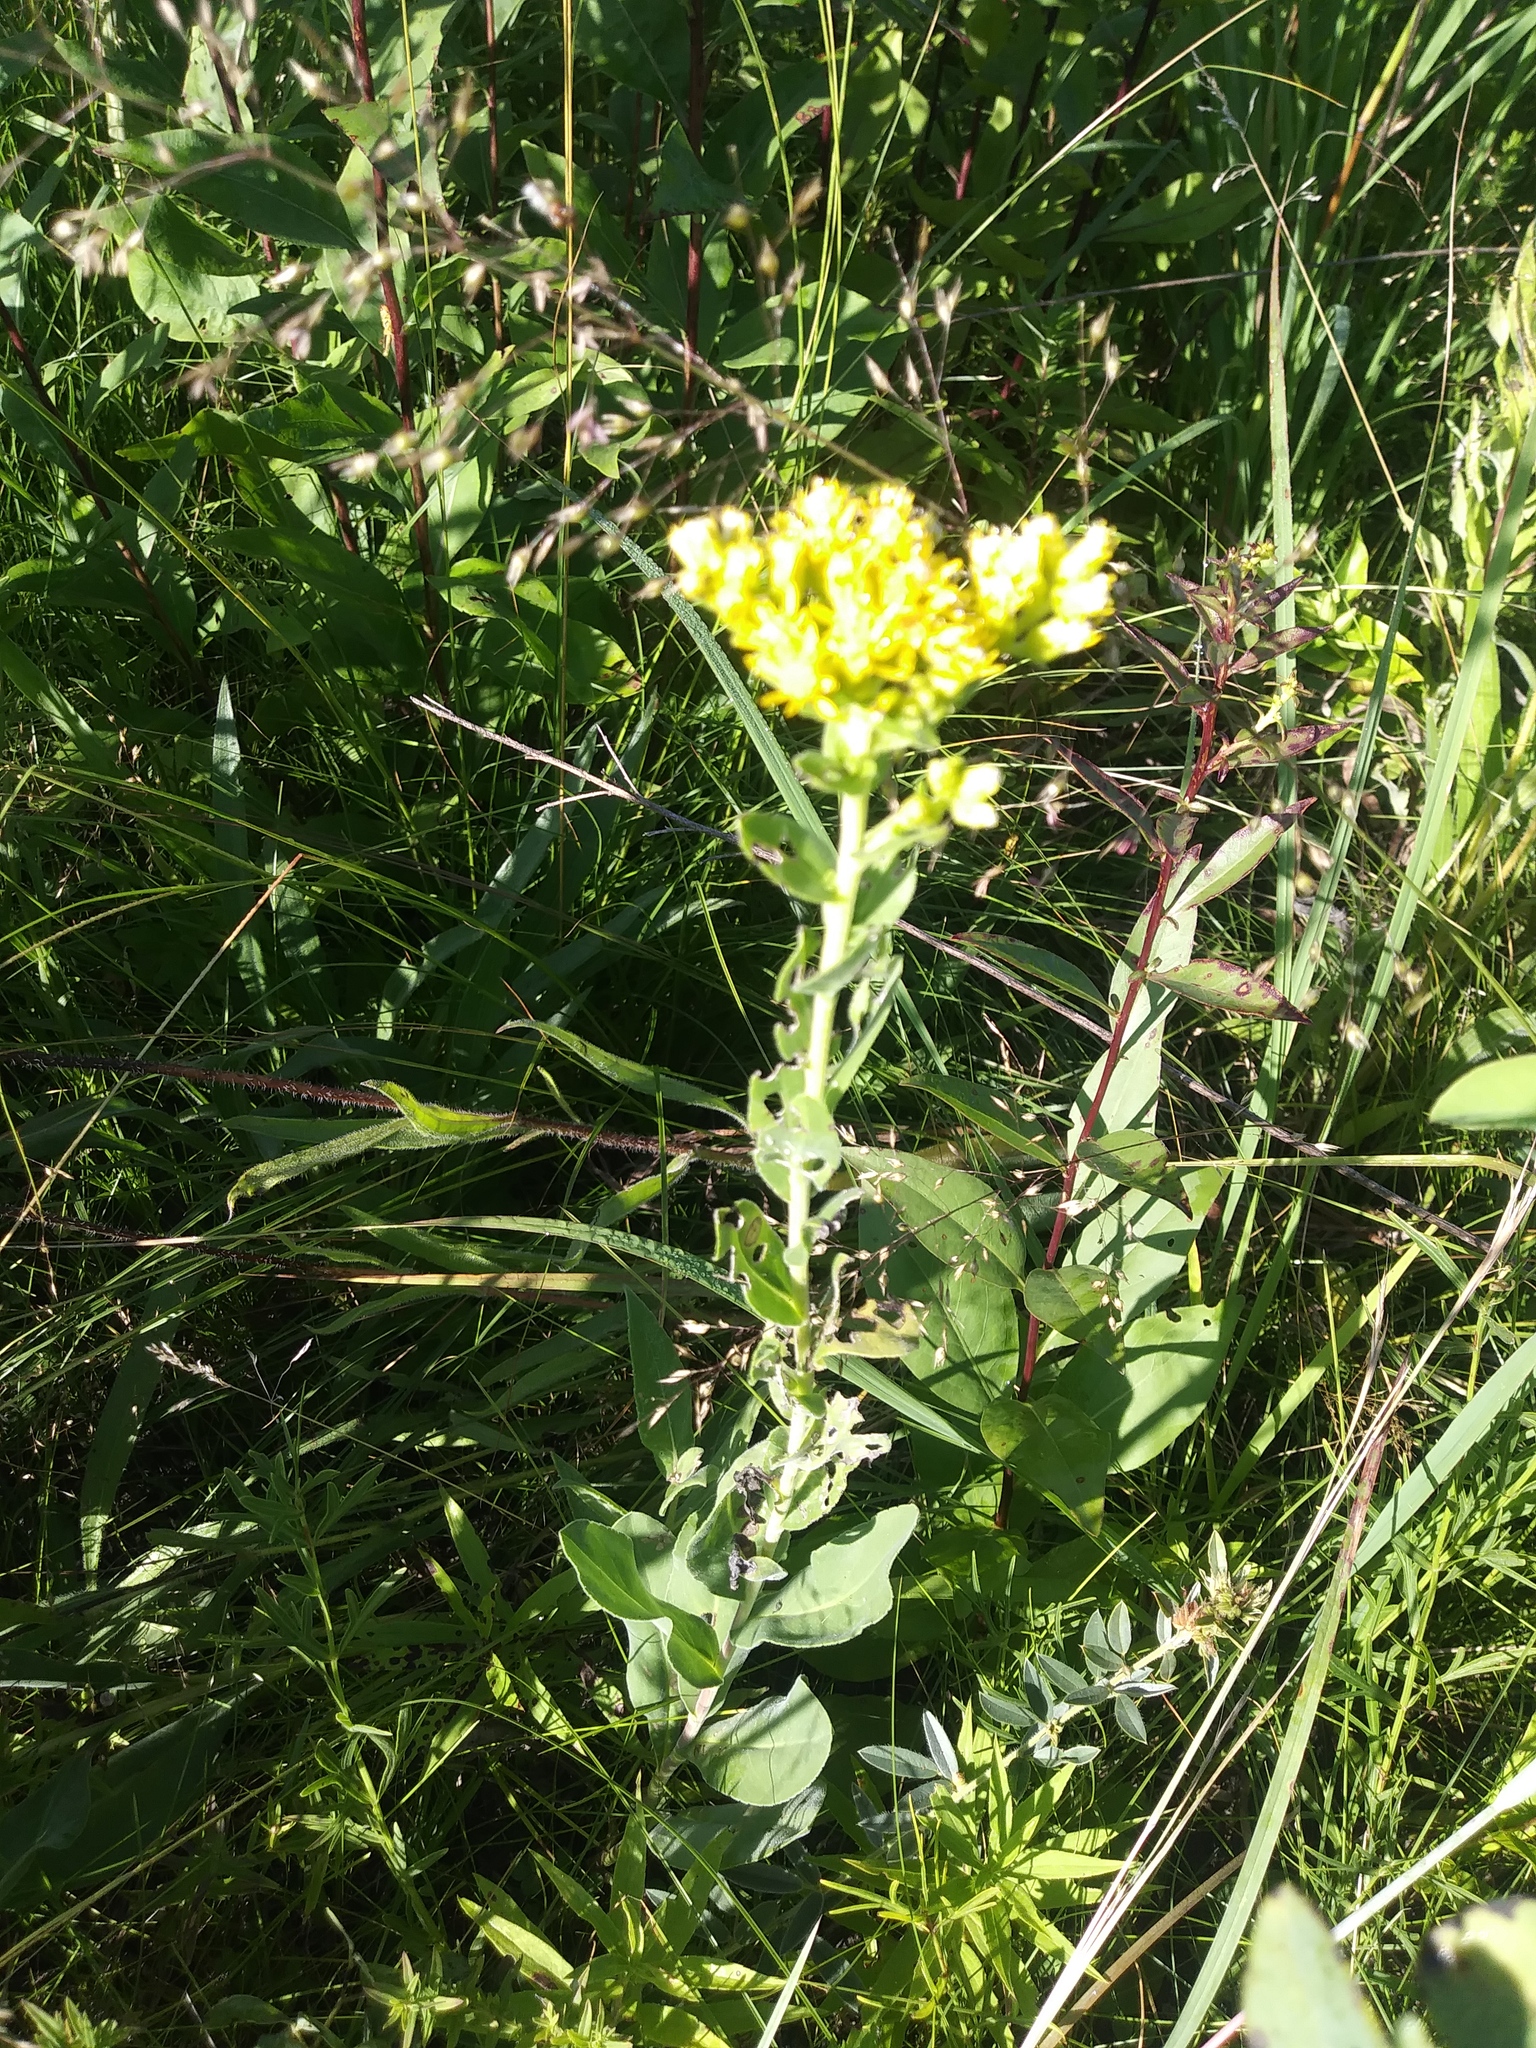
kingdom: Plantae
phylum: Tracheophyta
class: Magnoliopsida
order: Asterales
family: Asteraceae
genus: Solidago
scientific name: Solidago rigida
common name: Rigid goldenrod
